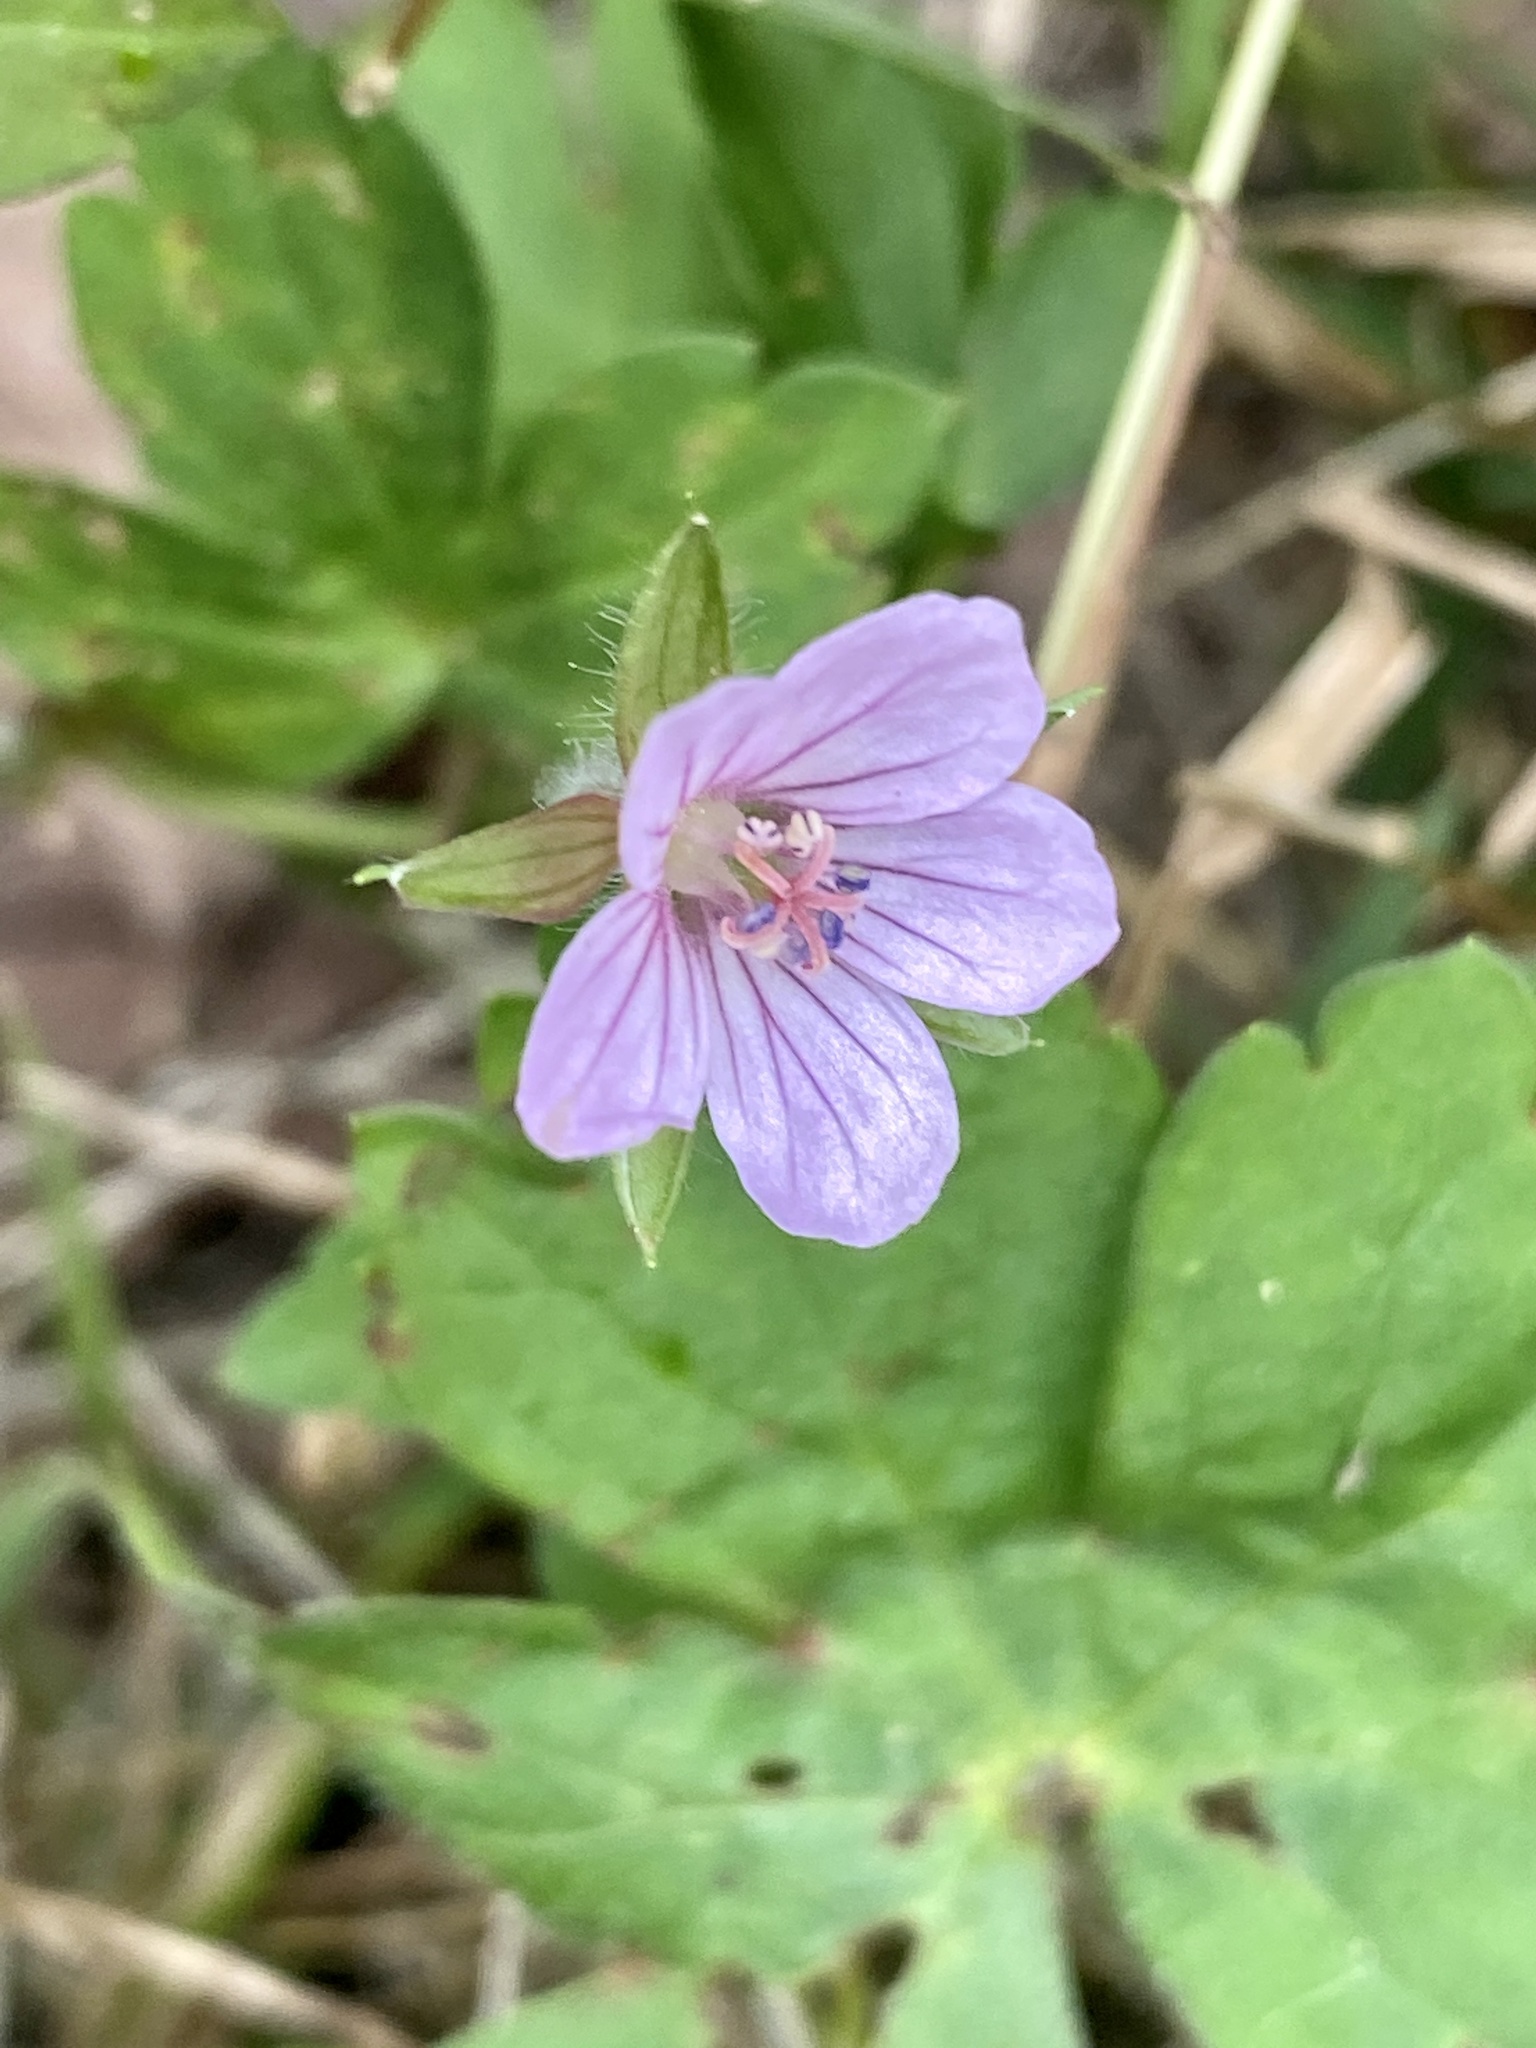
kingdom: Plantae
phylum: Tracheophyta
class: Magnoliopsida
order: Geraniales
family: Geraniaceae
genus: Geranium
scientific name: Geranium thunbergii
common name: Dewdrop crane's-bill
